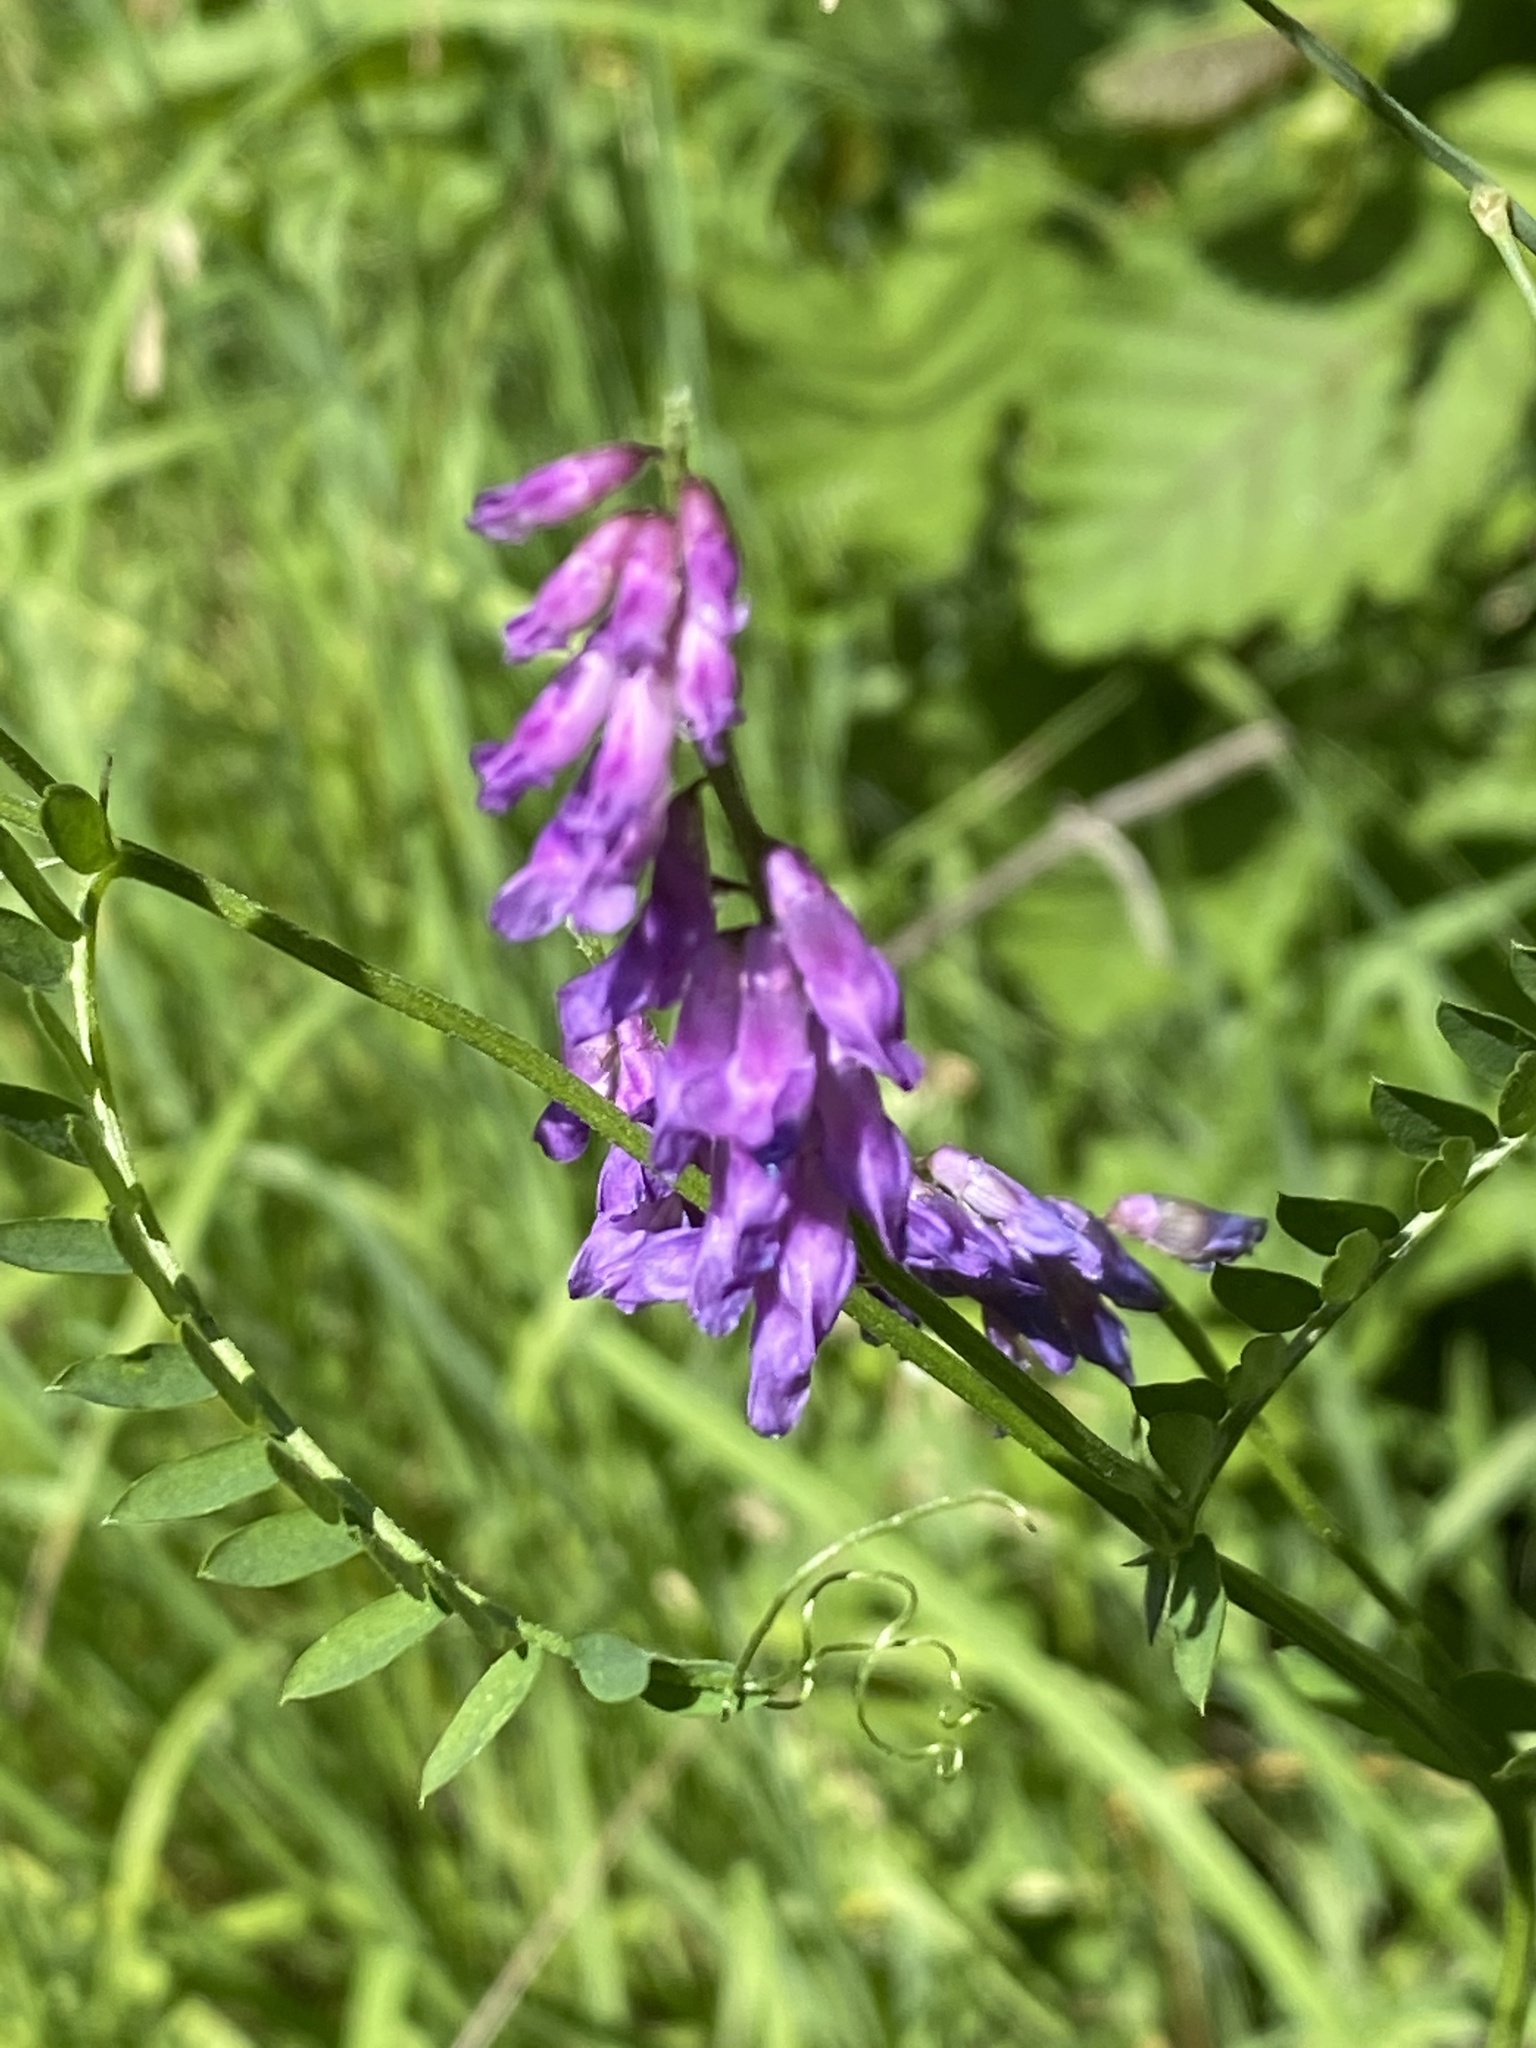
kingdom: Plantae
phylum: Tracheophyta
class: Magnoliopsida
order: Fabales
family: Fabaceae
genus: Vicia
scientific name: Vicia cracca
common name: Bird vetch
